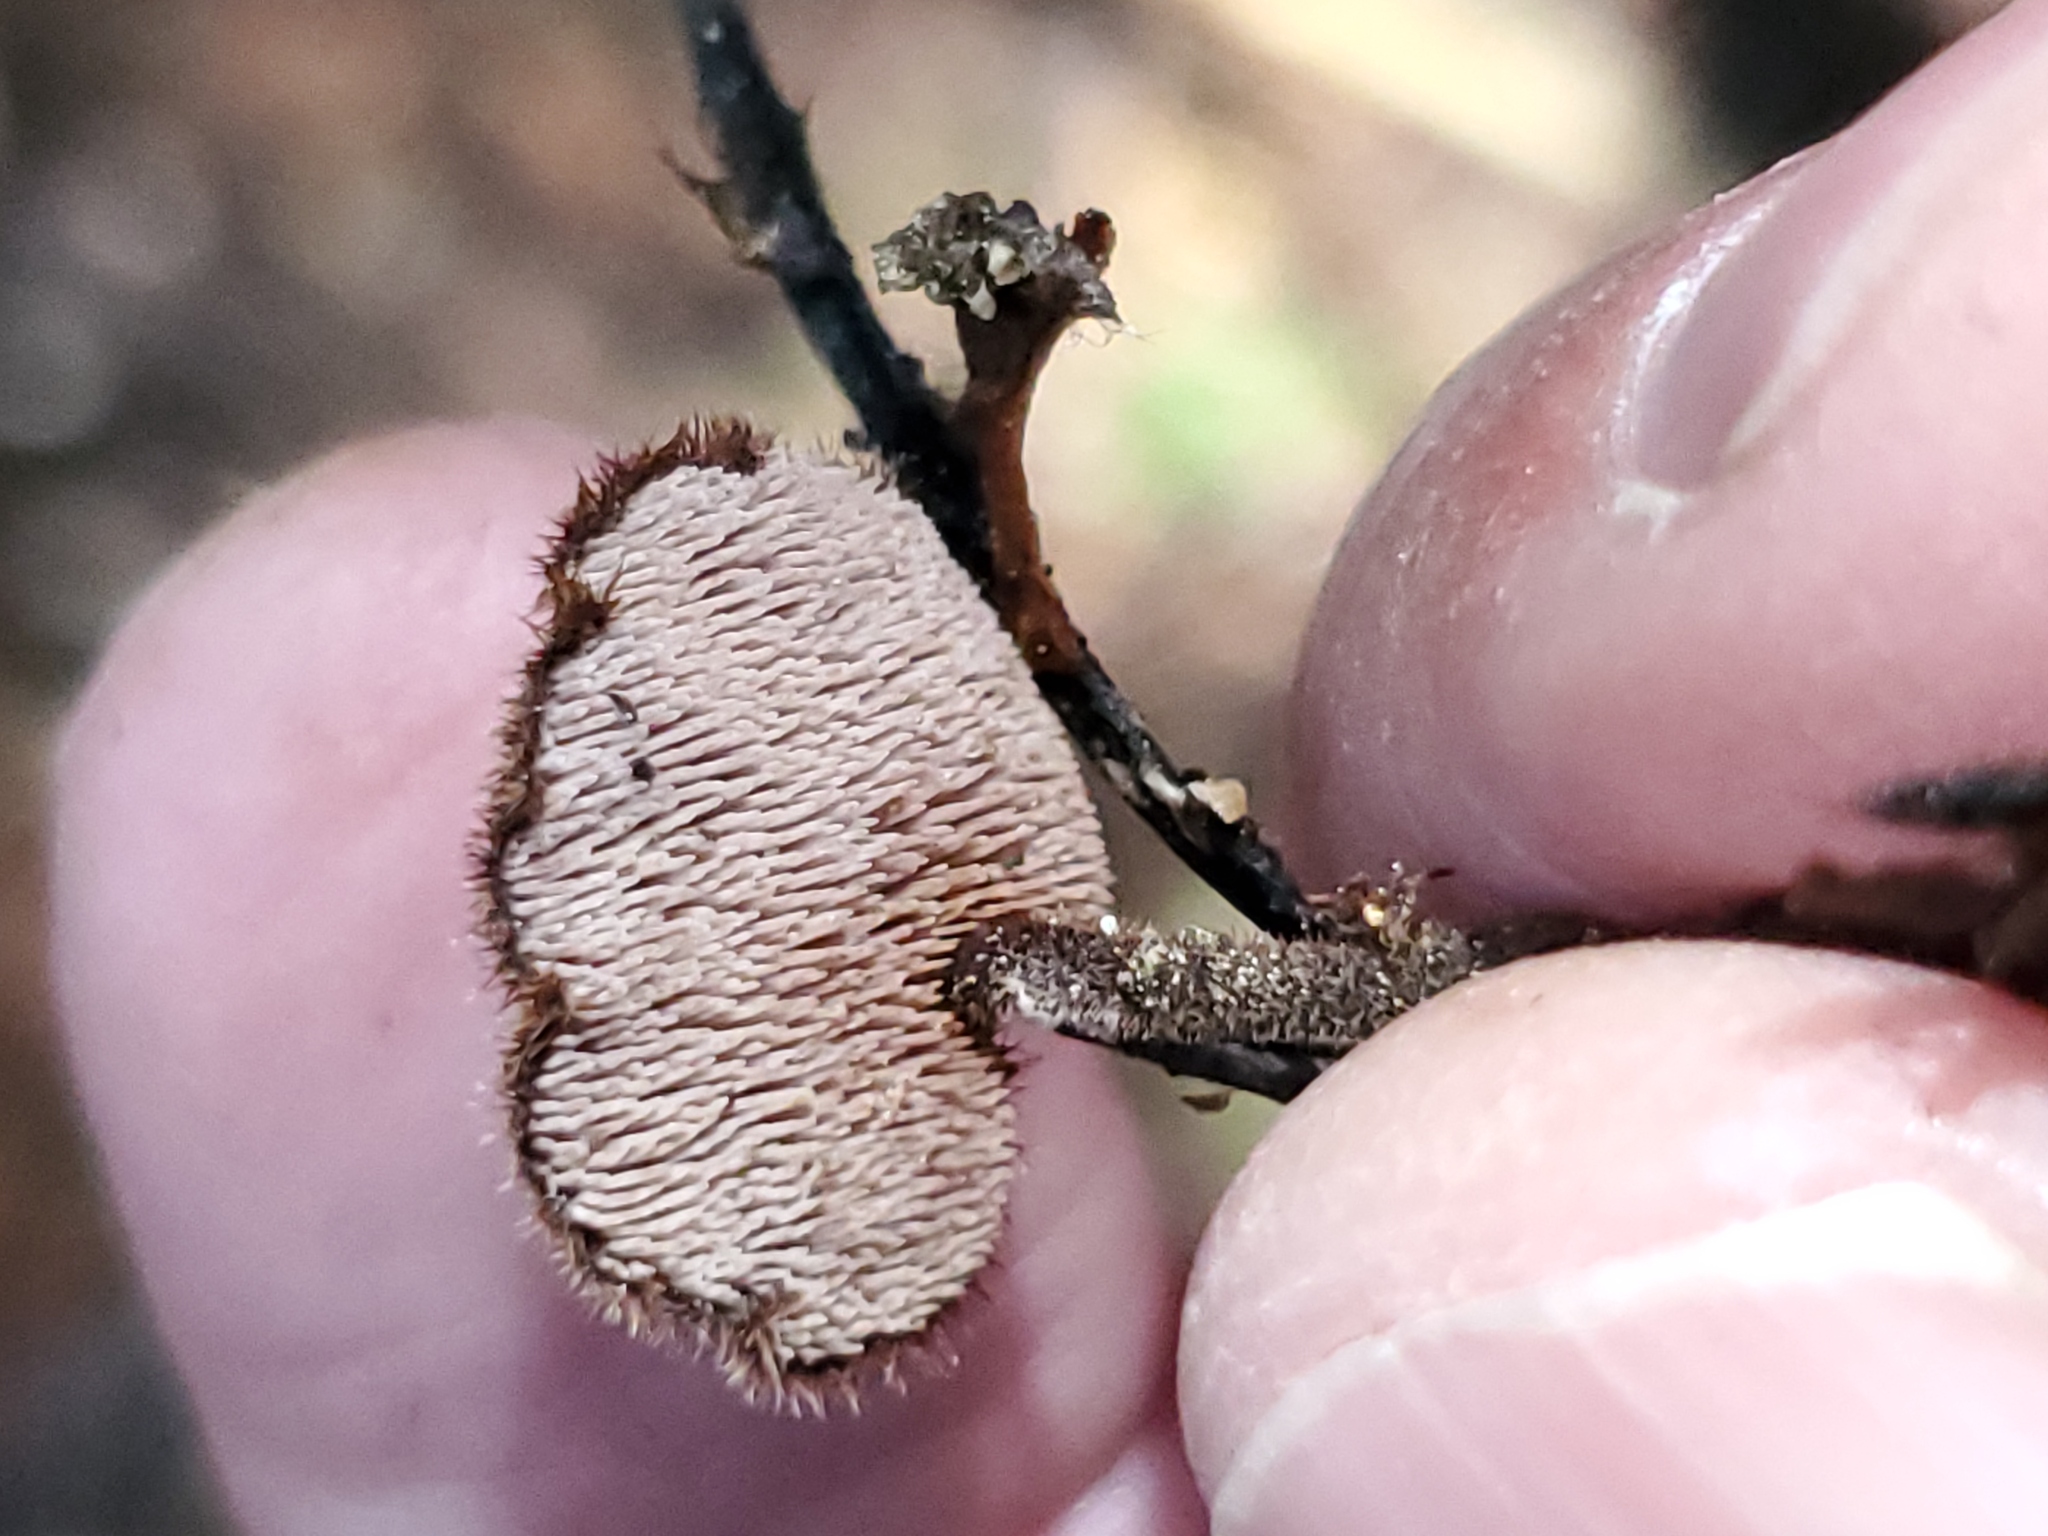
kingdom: Fungi
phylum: Basidiomycota
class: Agaricomycetes
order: Russulales
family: Auriscalpiaceae
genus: Auriscalpium
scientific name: Auriscalpium vulgare
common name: Earpick fungus
